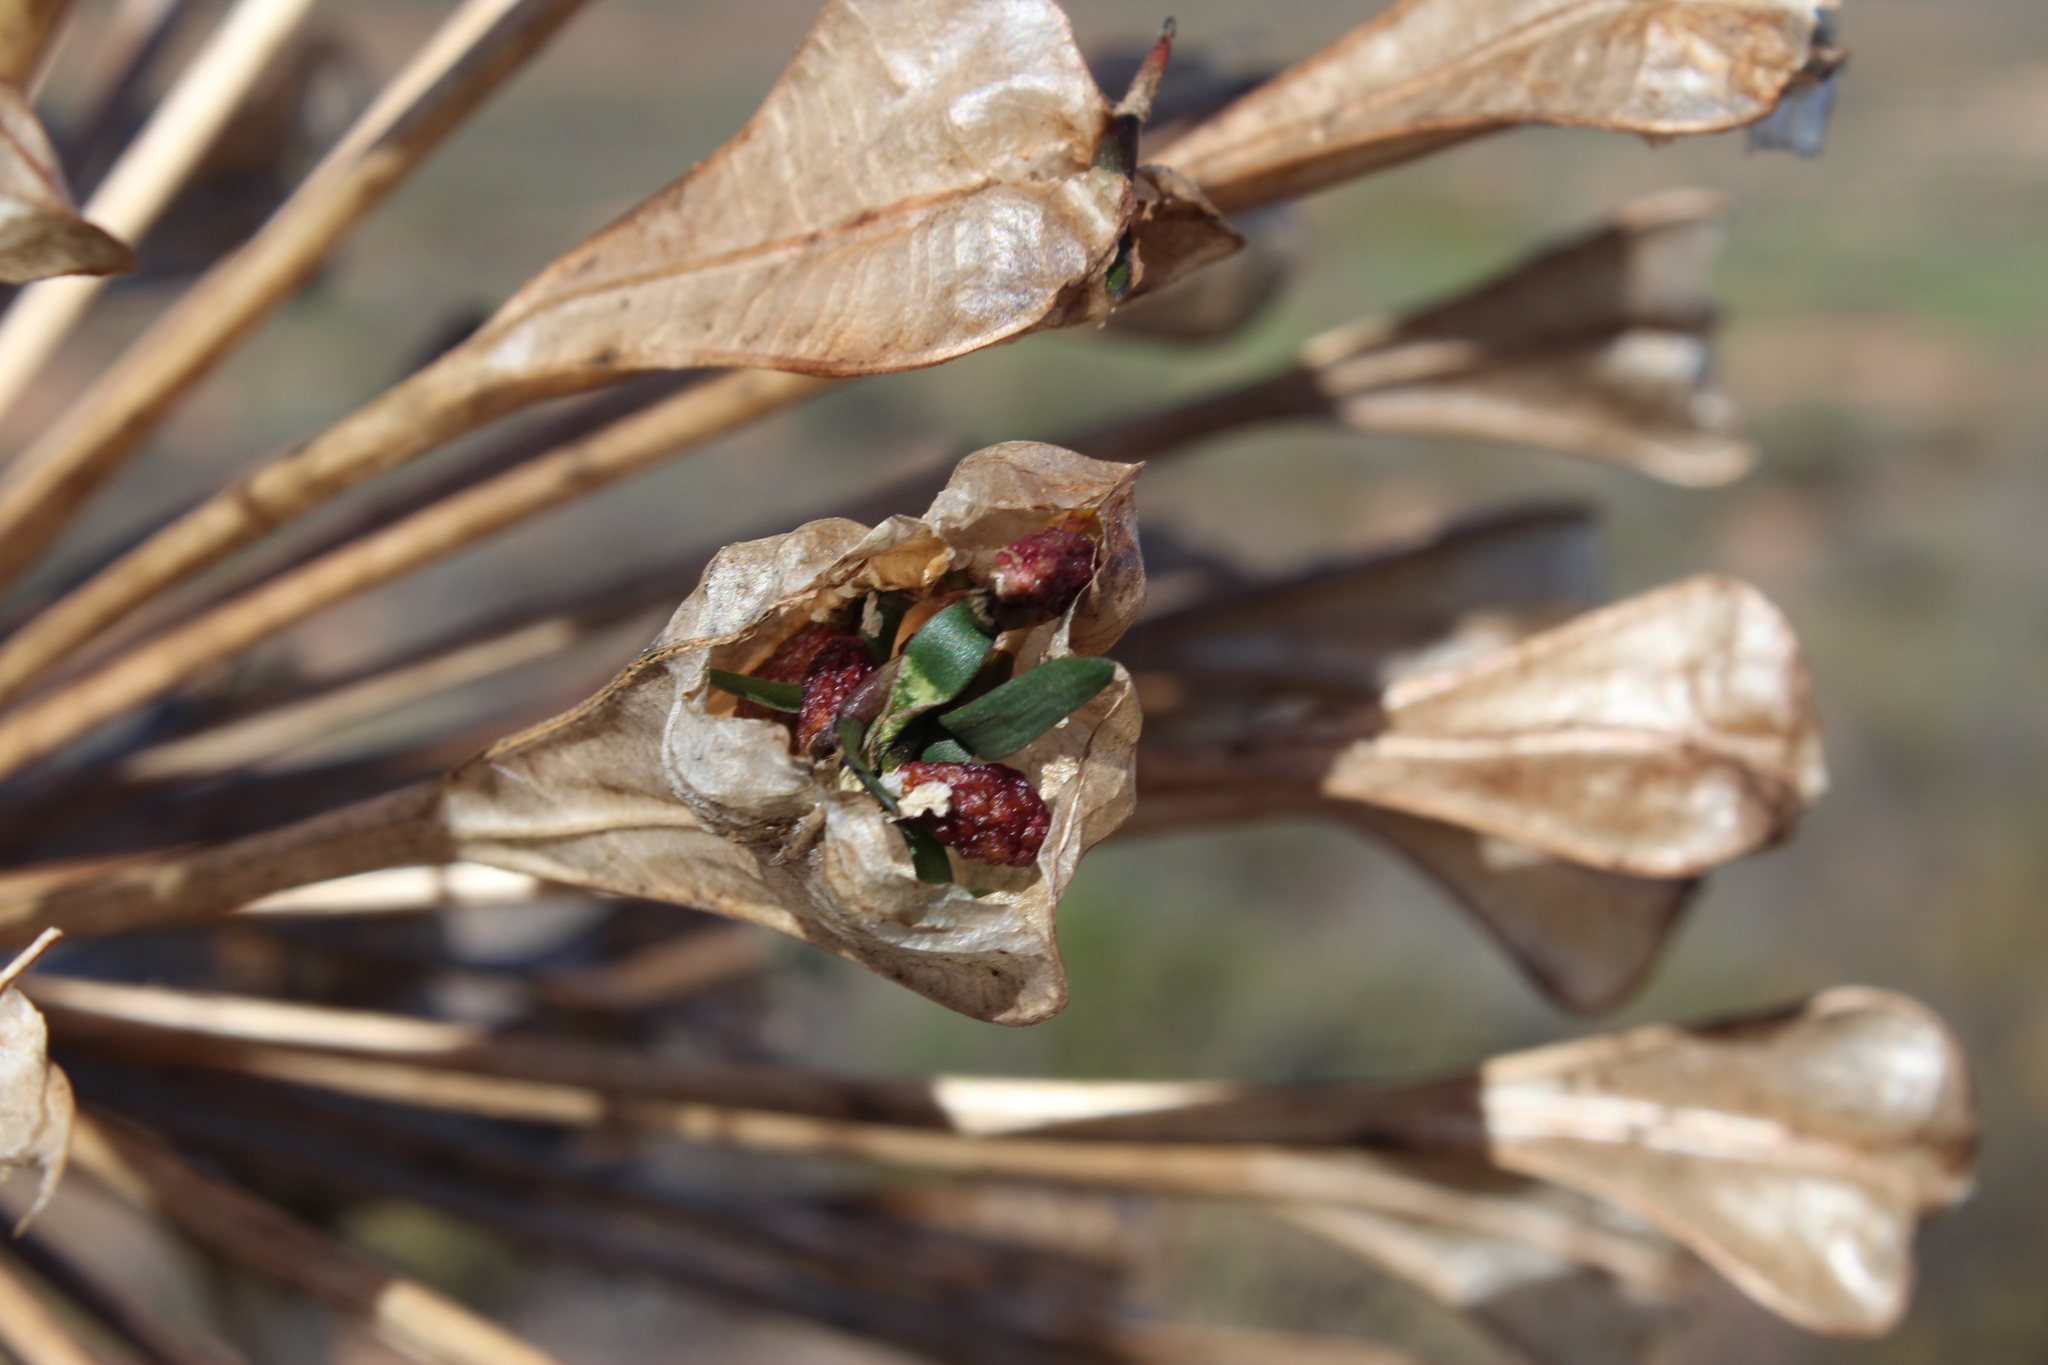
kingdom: Plantae
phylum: Tracheophyta
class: Liliopsida
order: Asparagales
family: Amaryllidaceae
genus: Brunsvigia
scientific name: Brunsvigia bosmaniae
